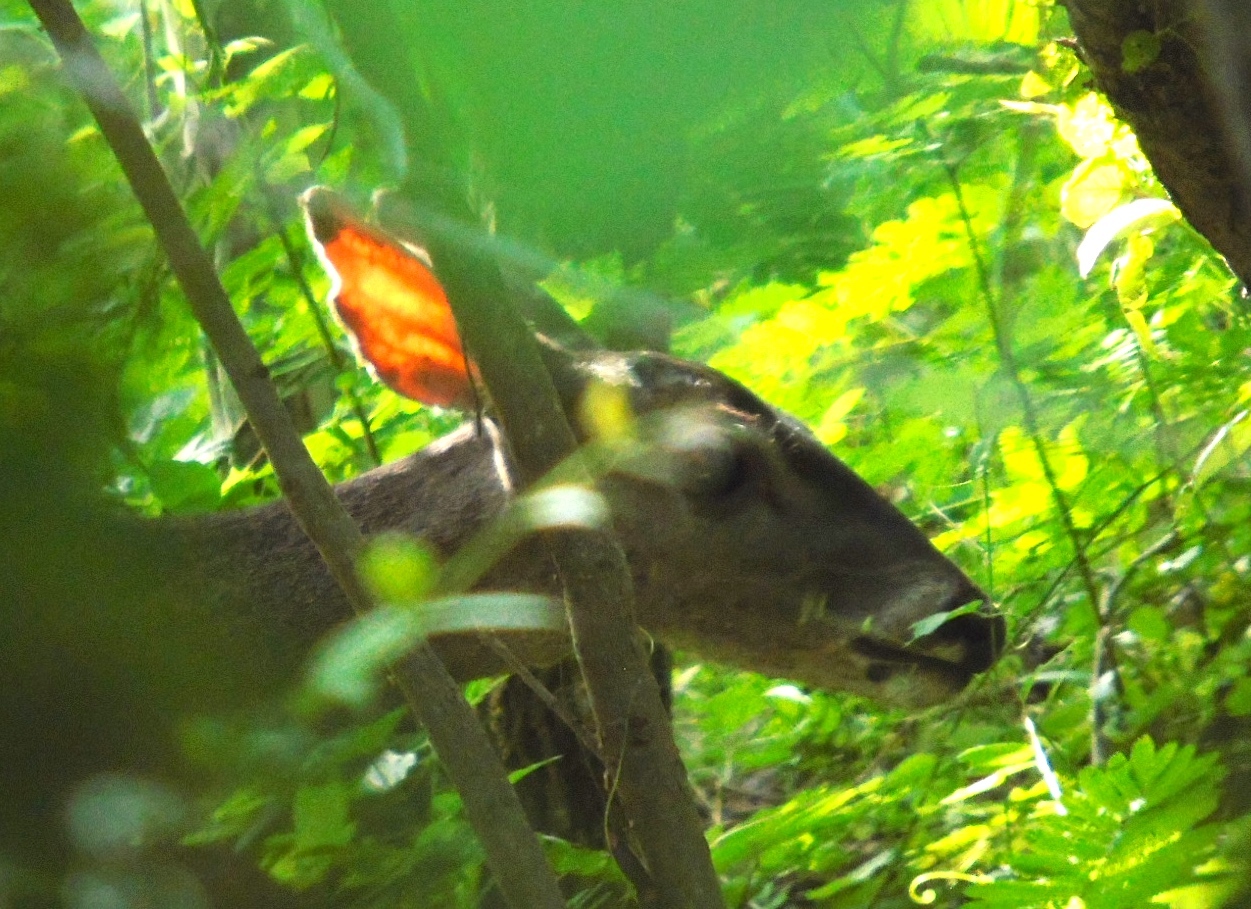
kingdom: Animalia
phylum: Chordata
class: Mammalia
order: Artiodactyla
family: Cervidae
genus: Odocoileus
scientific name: Odocoileus virginianus
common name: White-tailed deer
